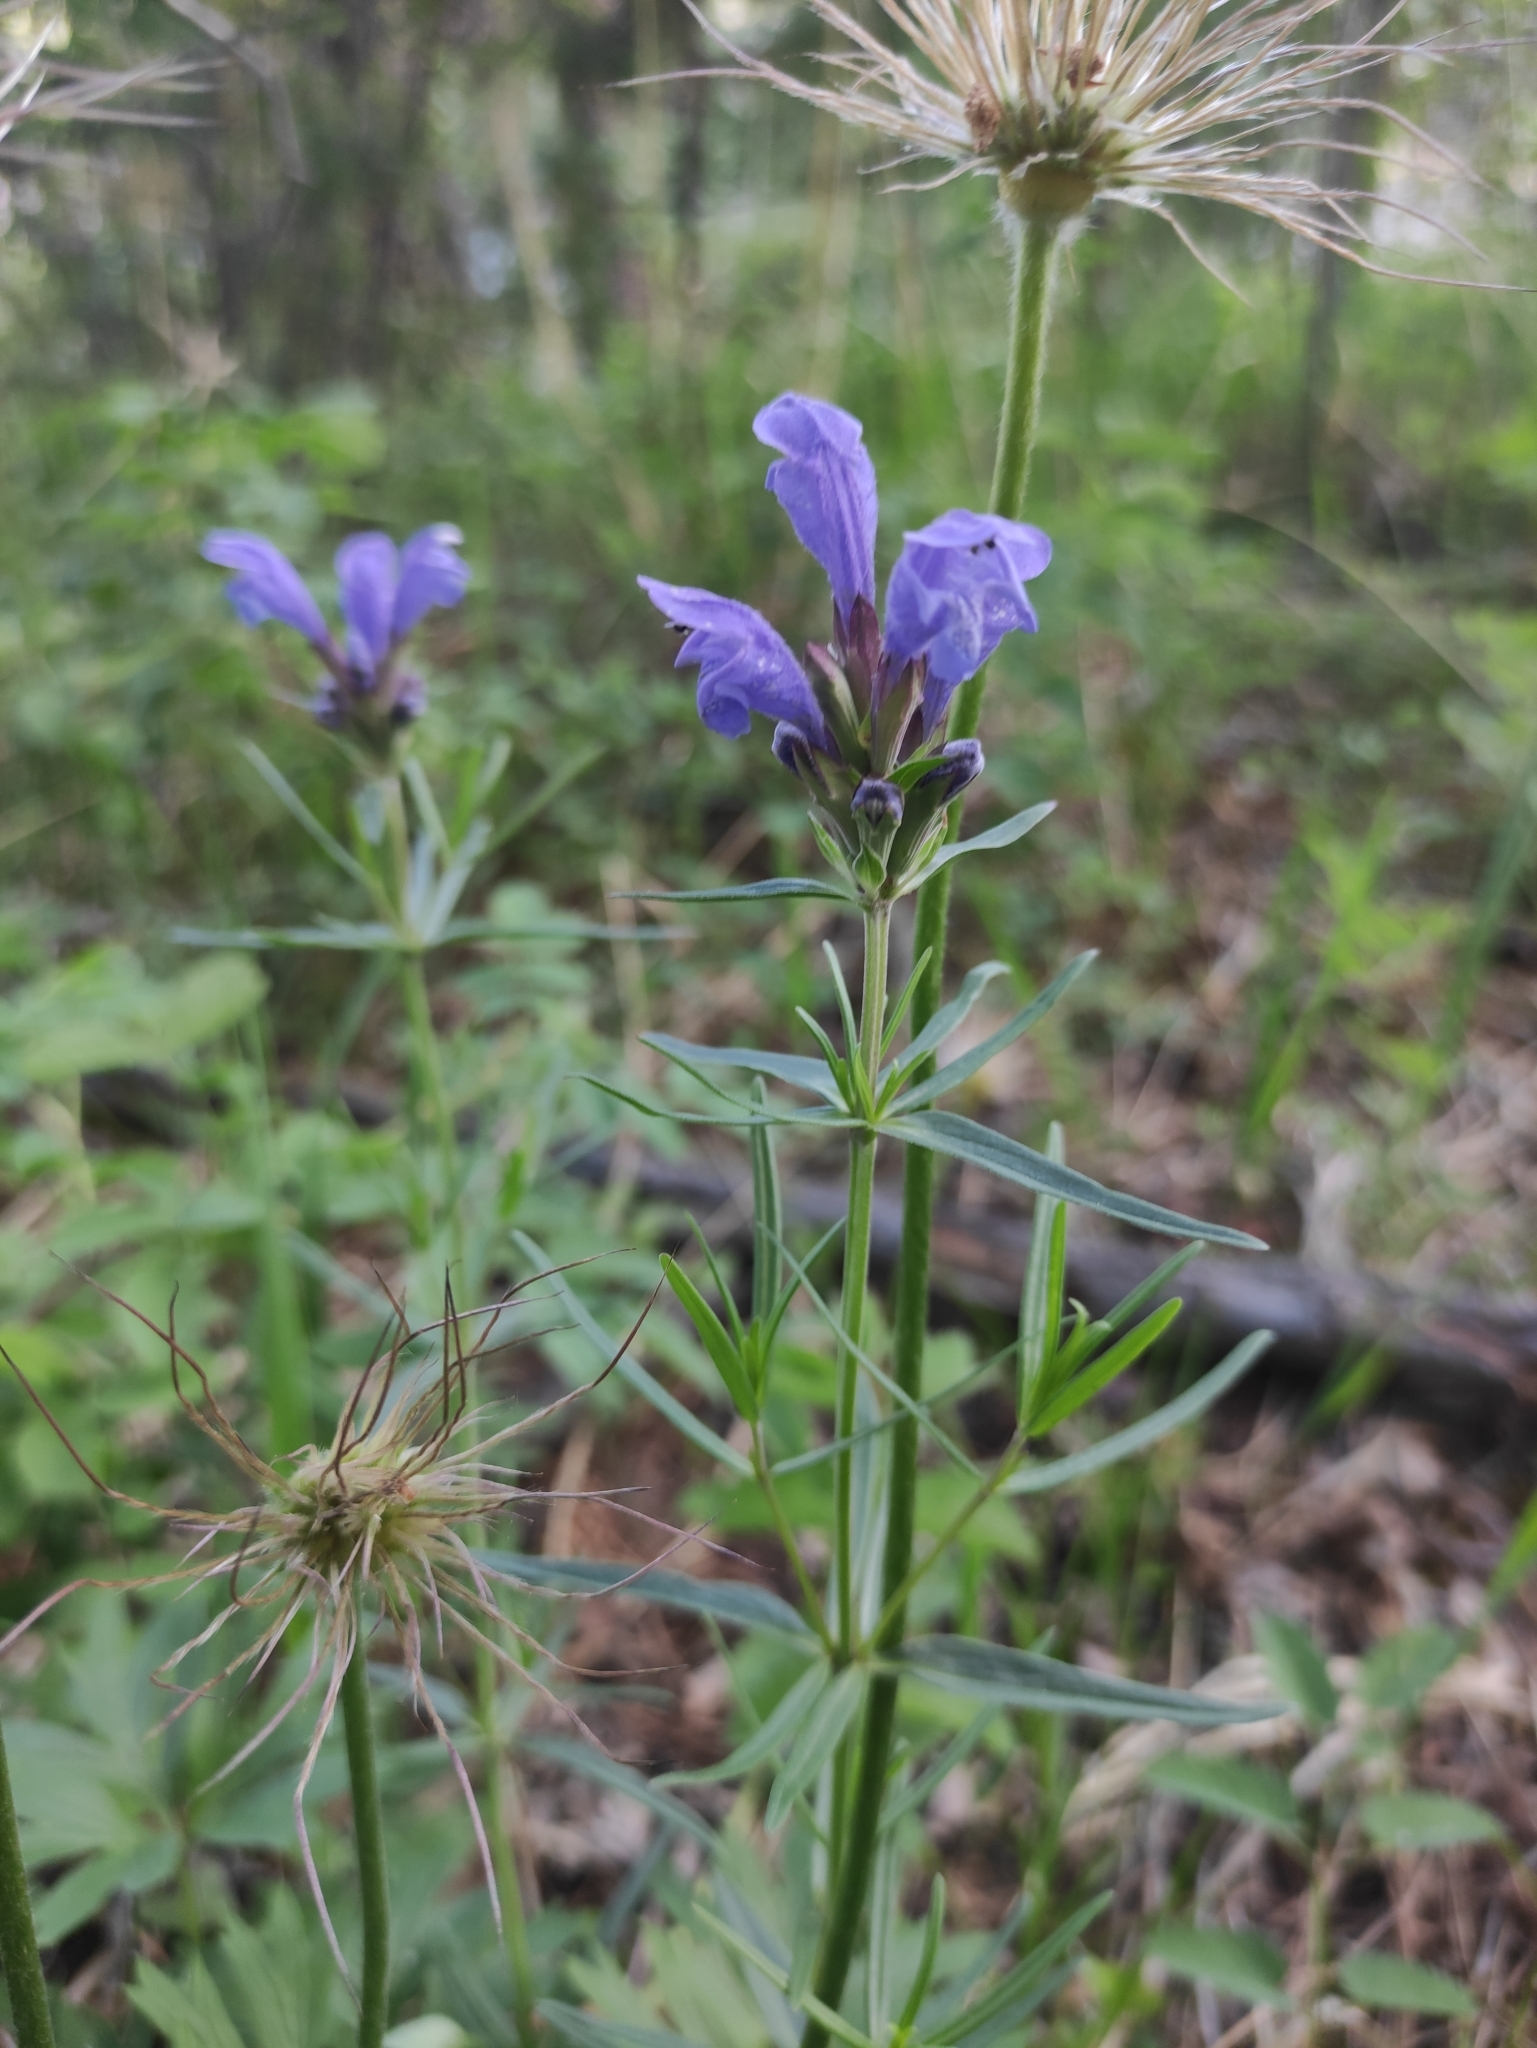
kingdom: Plantae
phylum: Tracheophyta
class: Magnoliopsida
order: Lamiales
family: Lamiaceae
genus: Dracocephalum
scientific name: Dracocephalum ruyschiana
